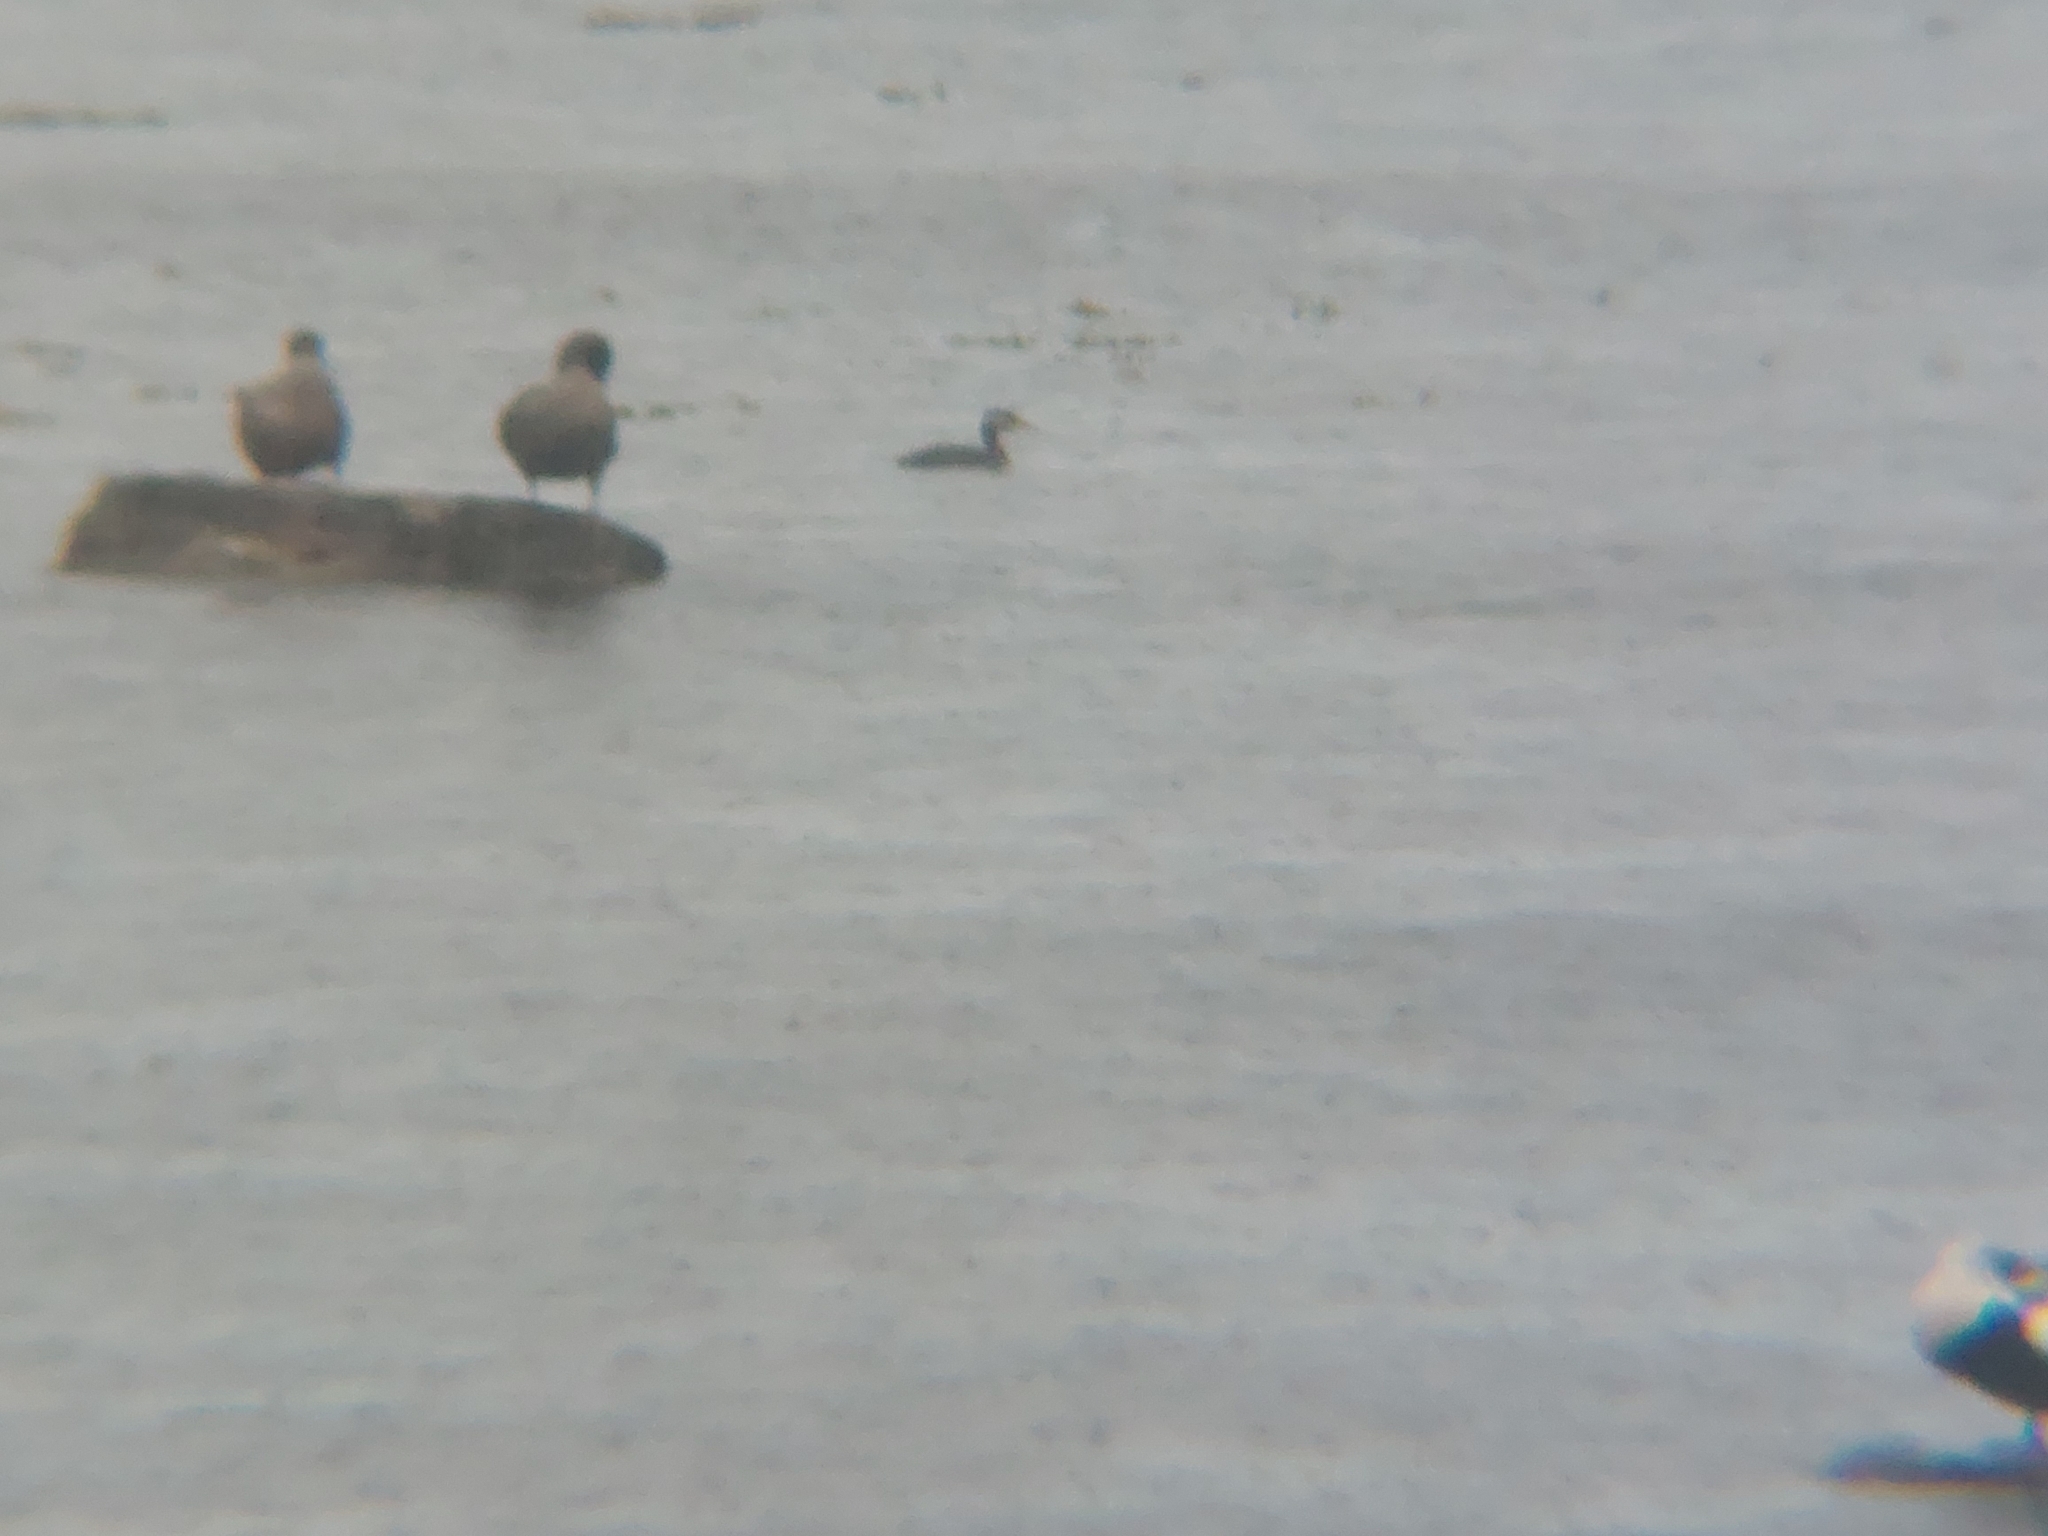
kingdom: Animalia
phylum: Chordata
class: Aves
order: Podicipediformes
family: Podicipedidae
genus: Podiceps
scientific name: Podiceps grisegena
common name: Red-necked grebe
